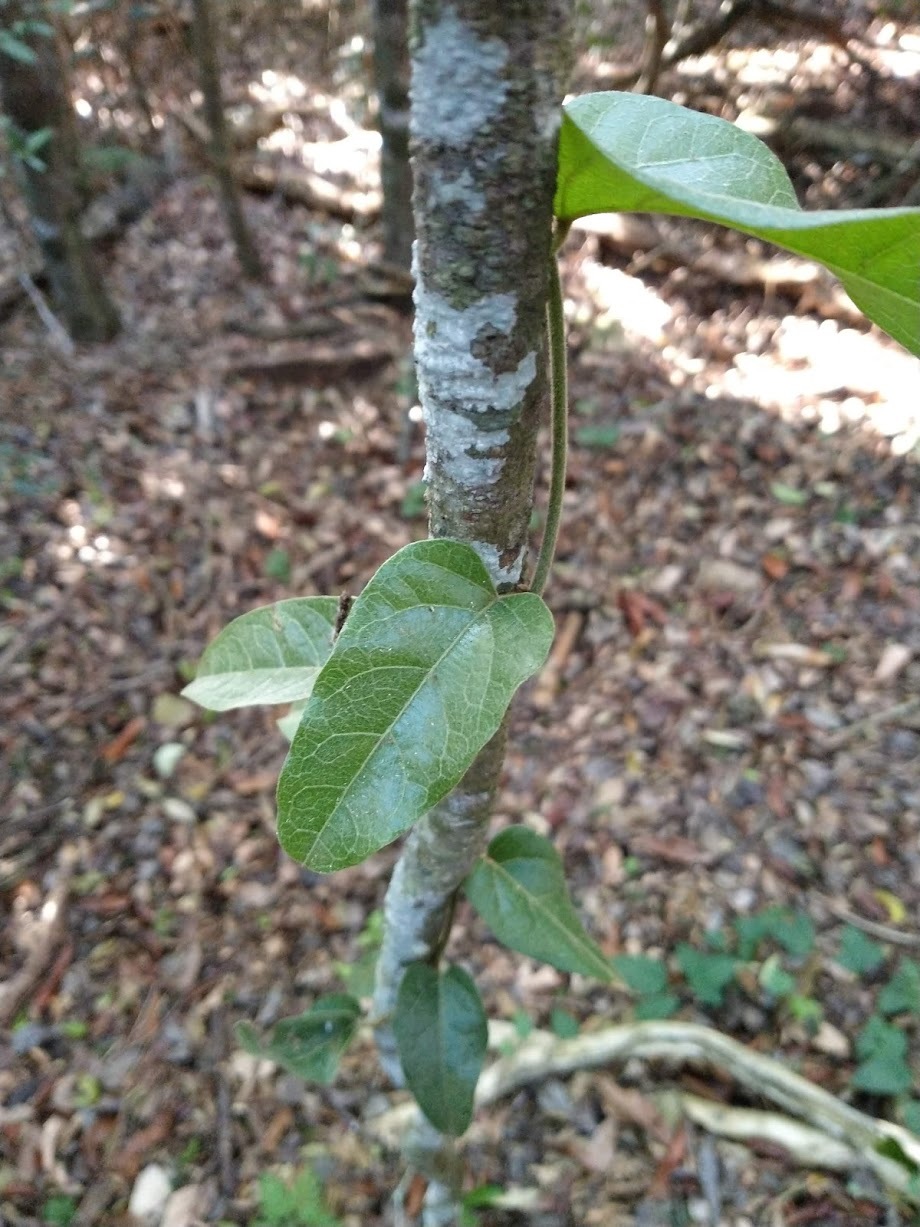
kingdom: Plantae
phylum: Tracheophyta
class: Magnoliopsida
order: Ranunculales
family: Menispermaceae
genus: Pleogyne
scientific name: Pleogyne australis
